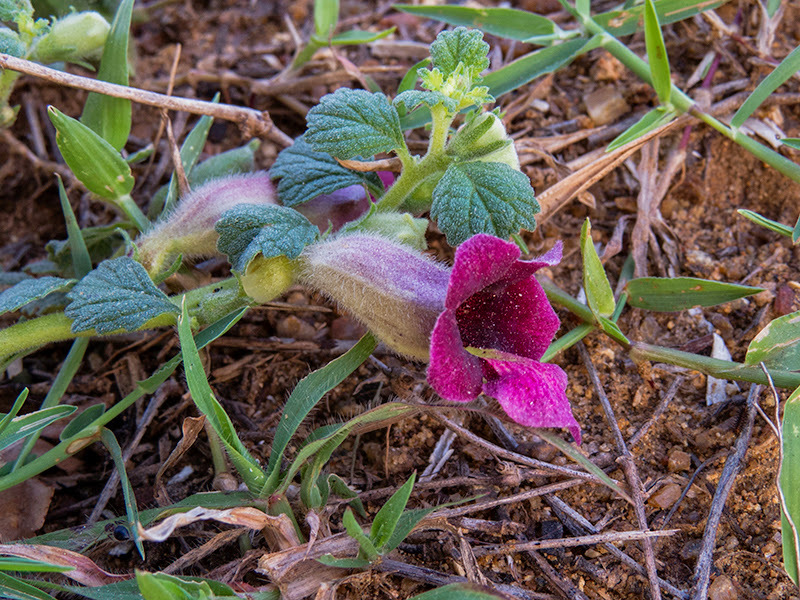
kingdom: Plantae
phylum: Tracheophyta
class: Magnoliopsida
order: Lamiales
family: Pedaliaceae
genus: Sesamum
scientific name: Sesamum prostratum
